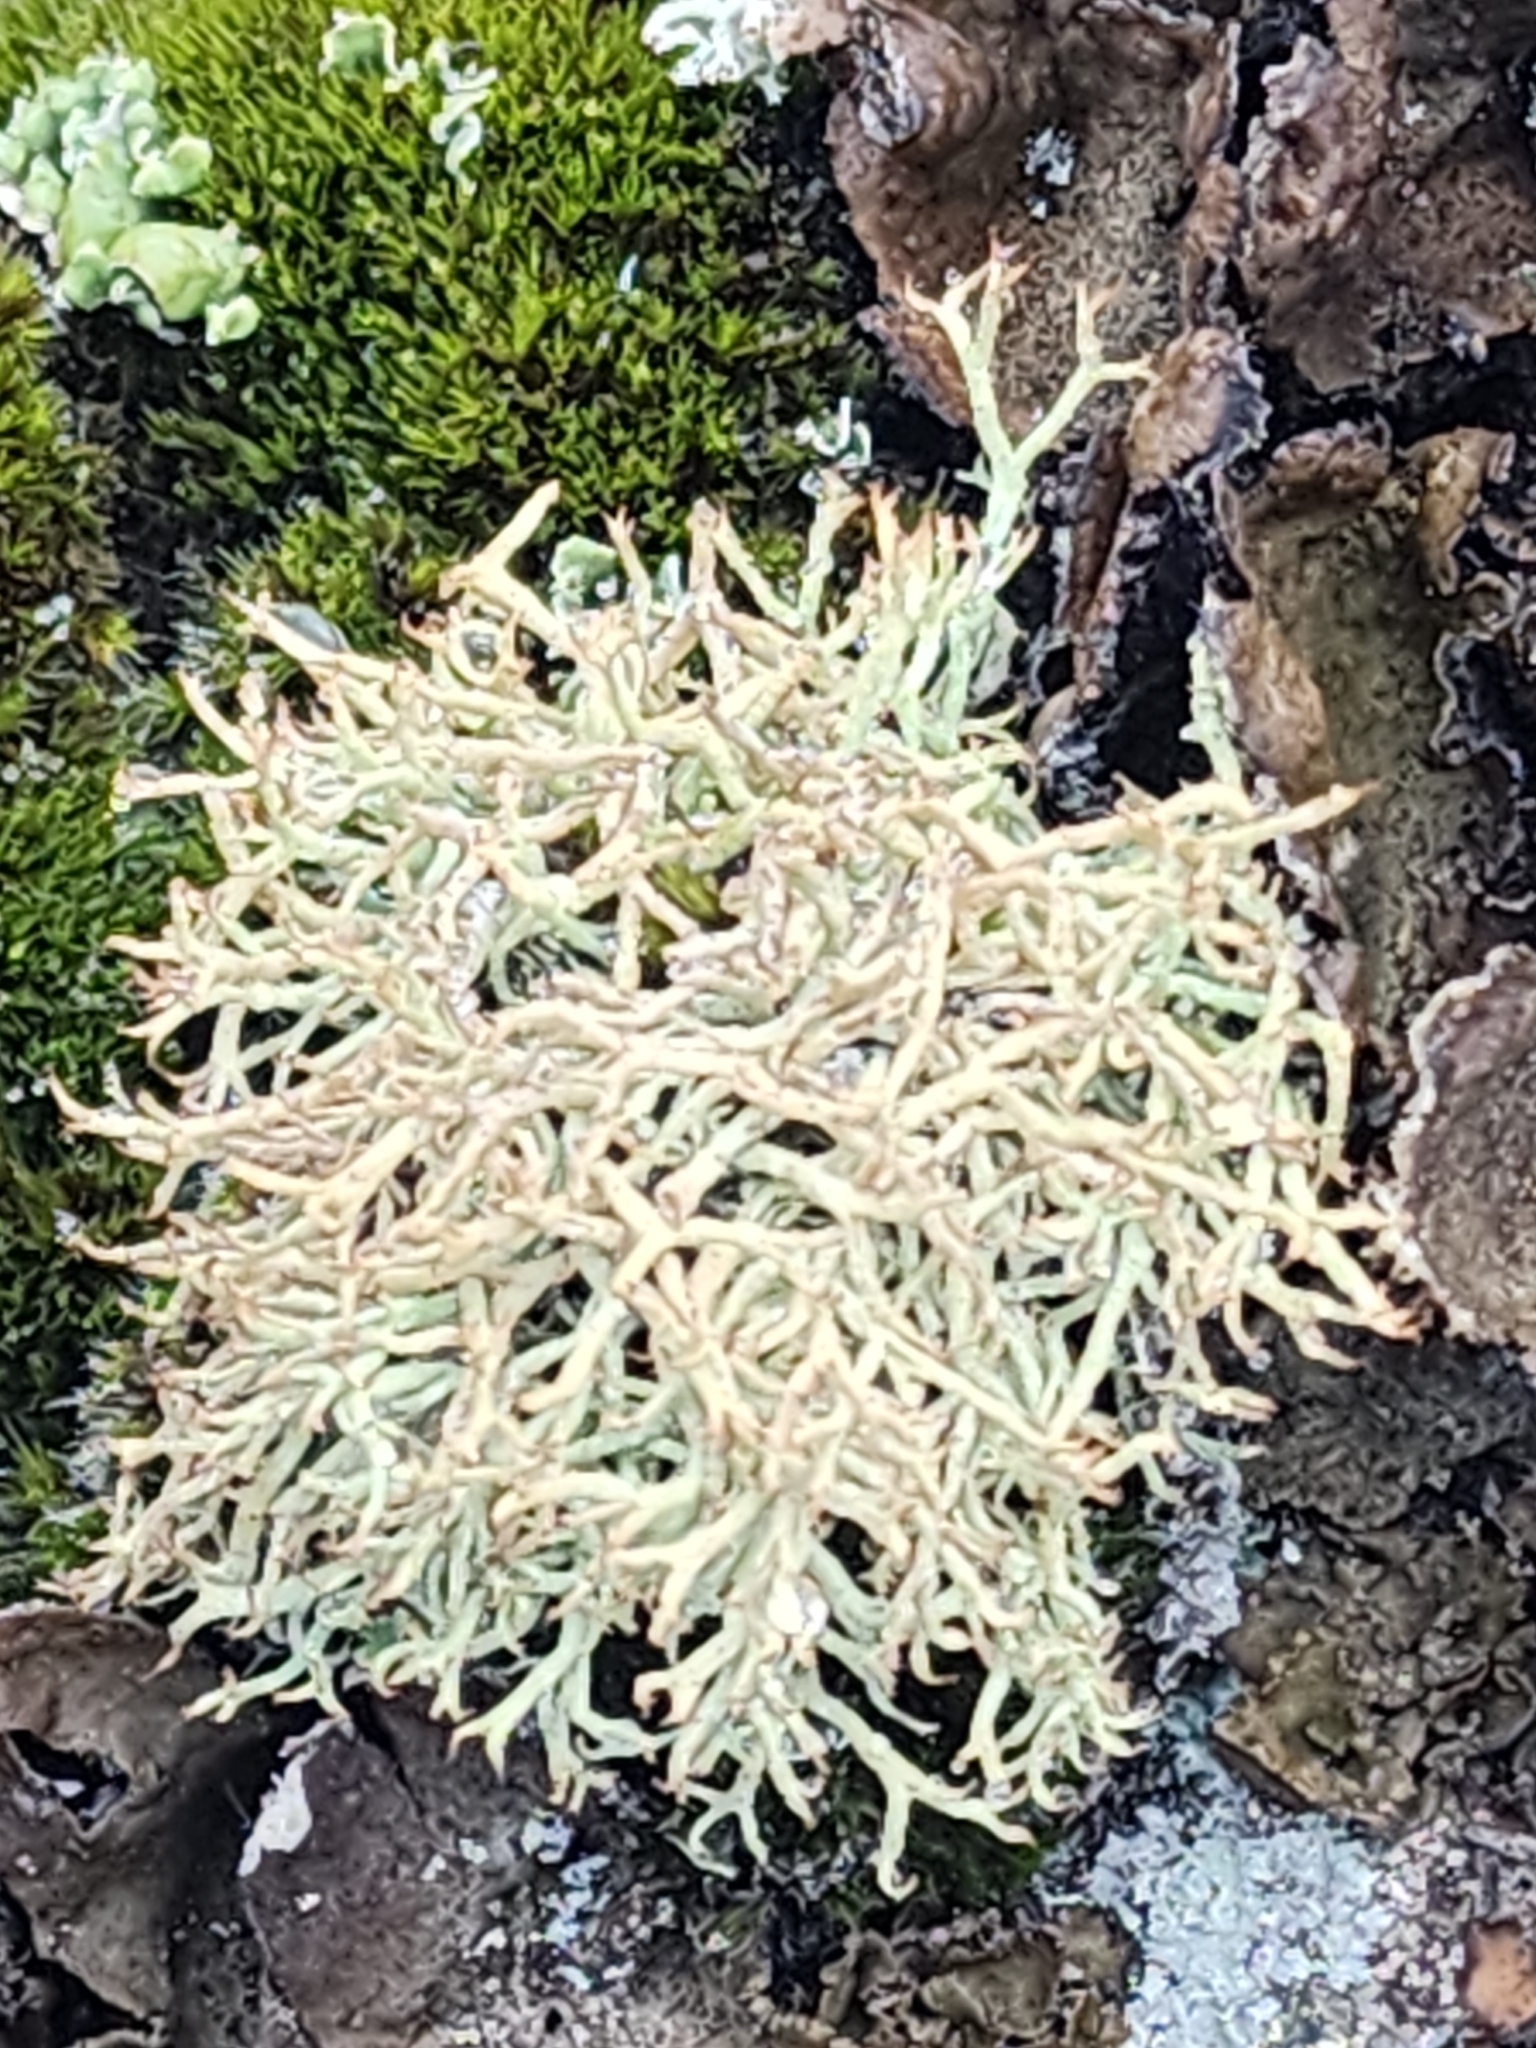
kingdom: Fungi
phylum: Ascomycota
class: Lecanoromycetes
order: Lecanorales
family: Cladoniaceae
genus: Cladonia
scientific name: Cladonia uncialis
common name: Thorn lichen
